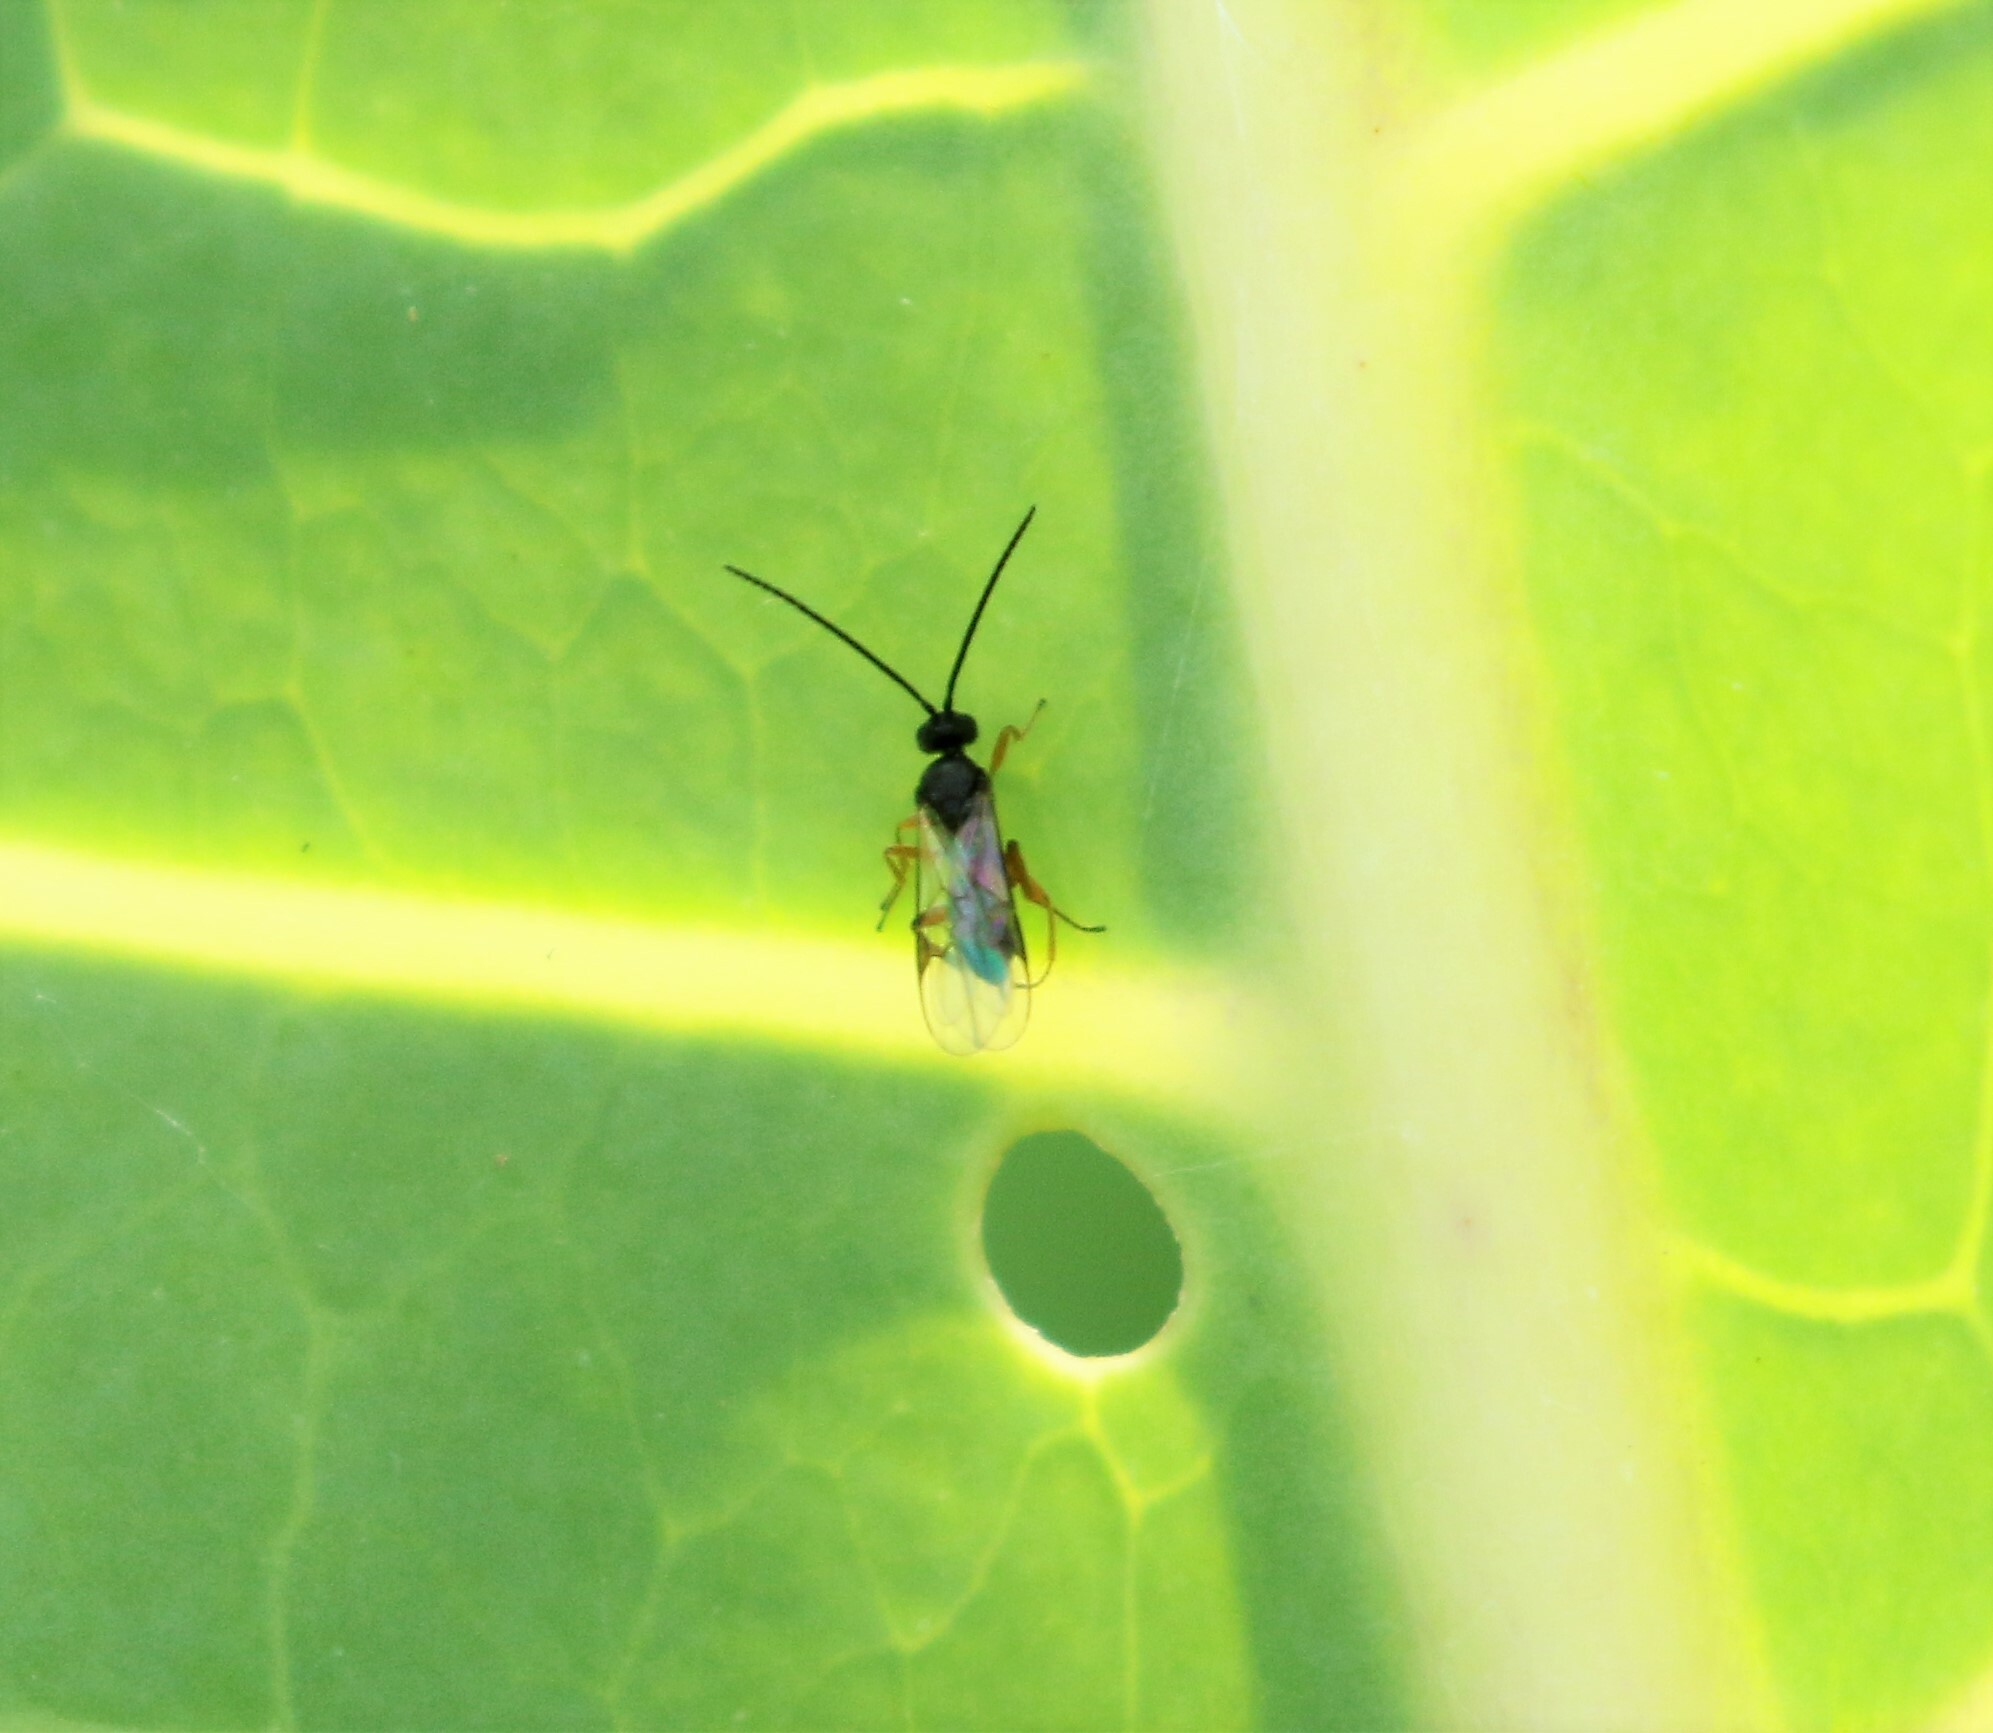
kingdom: Animalia
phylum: Arthropoda
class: Insecta
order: Hymenoptera
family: Braconidae
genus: Cotesia
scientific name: Cotesia glomerata
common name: Parasitoid wasp
